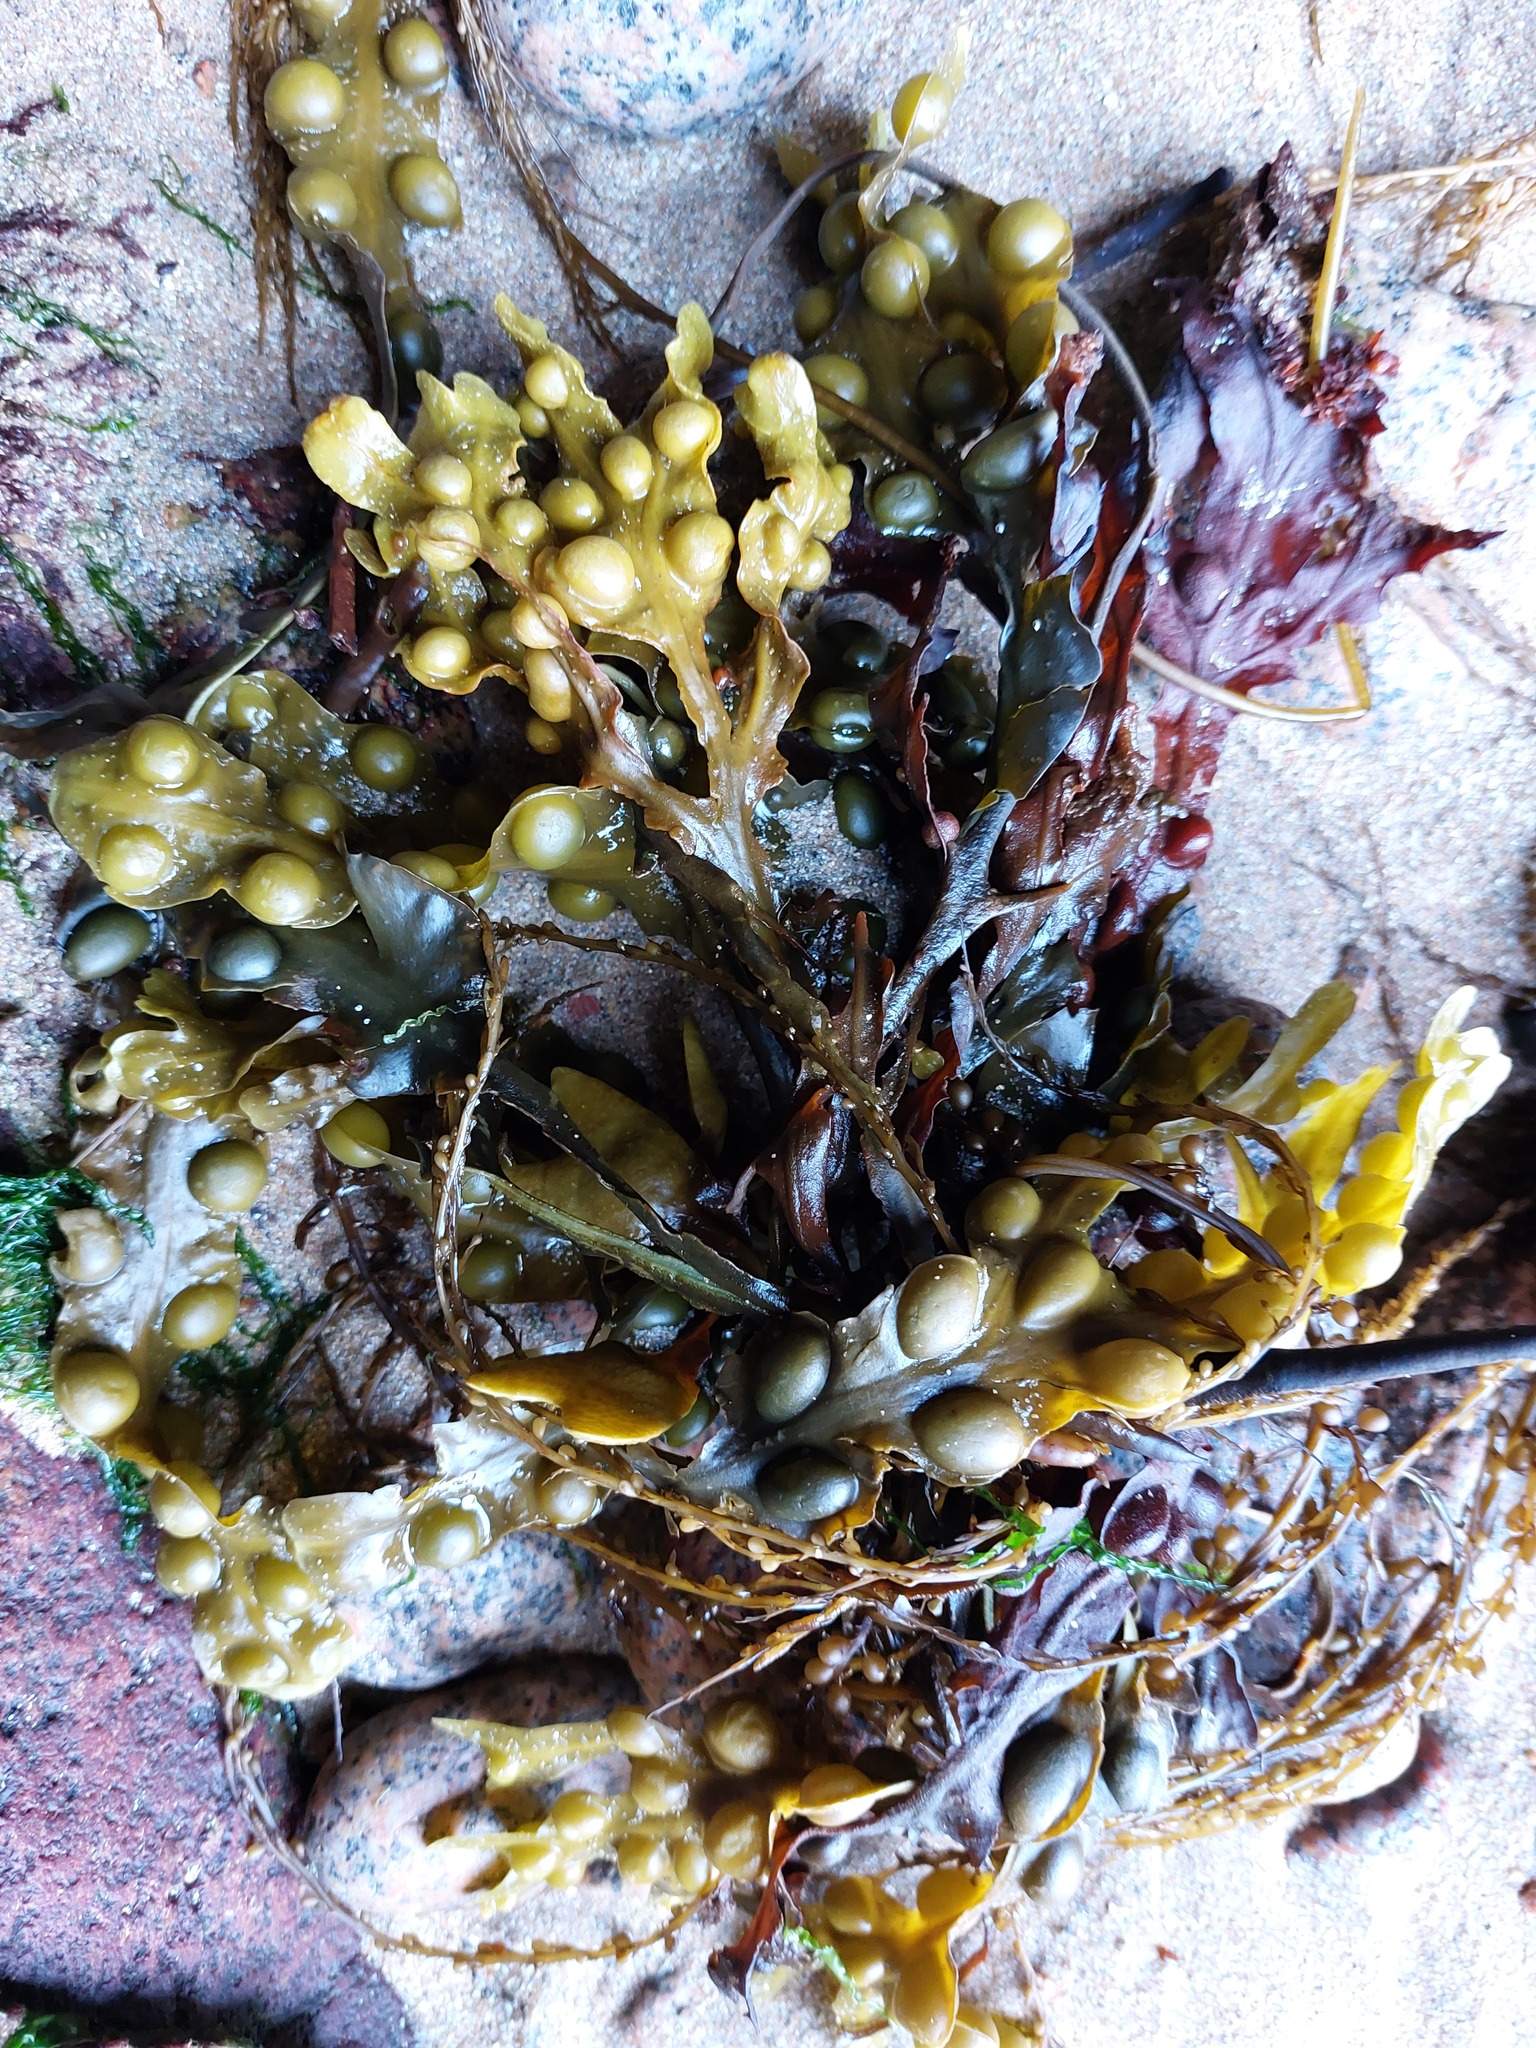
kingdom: Chromista
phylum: Ochrophyta
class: Phaeophyceae
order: Fucales
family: Fucaceae
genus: Fucus
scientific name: Fucus vesiculosus
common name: Bladder wrack
